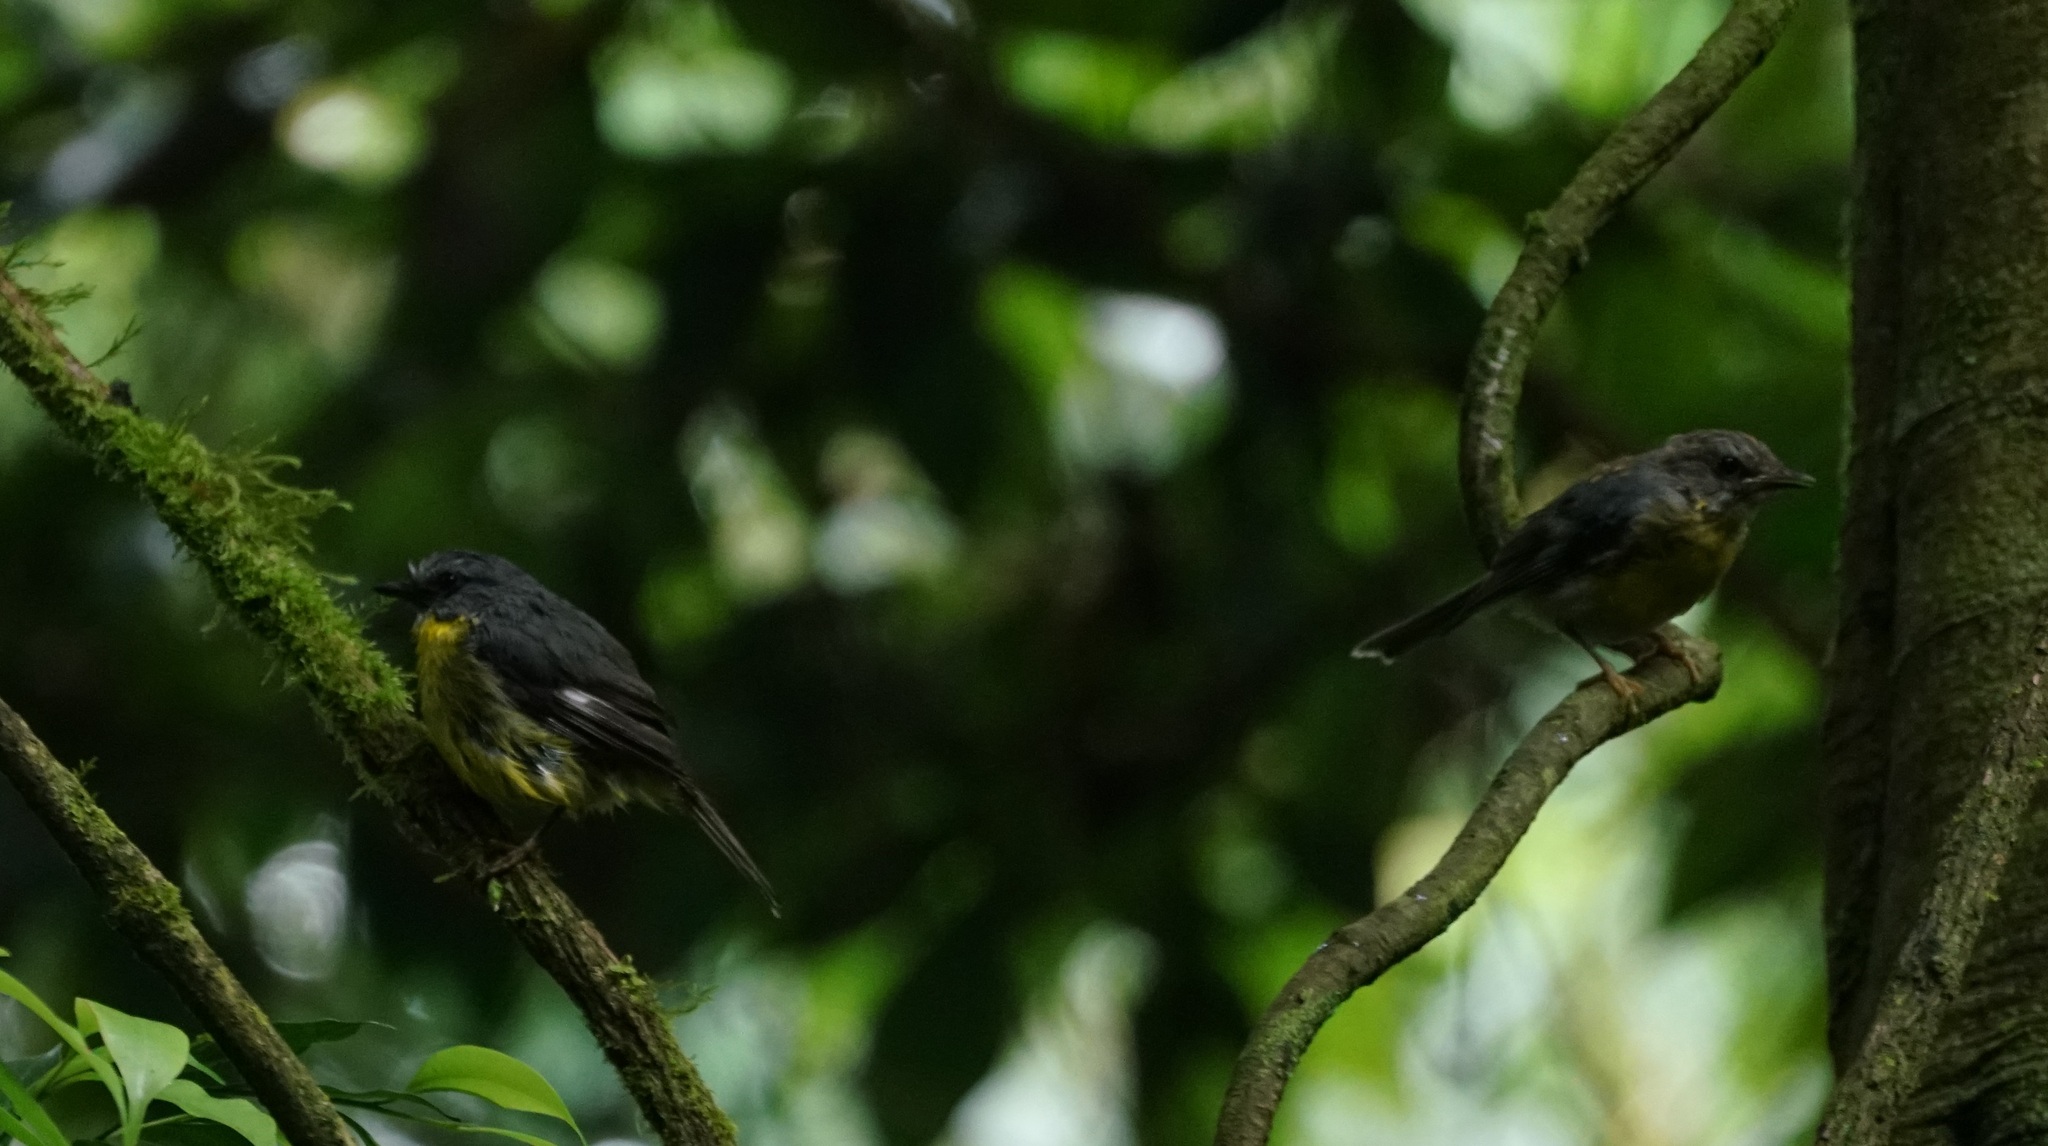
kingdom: Animalia
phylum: Chordata
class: Aves
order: Passeriformes
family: Petroicidae
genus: Eopsaltria
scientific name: Eopsaltria australis
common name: Eastern yellow robin
